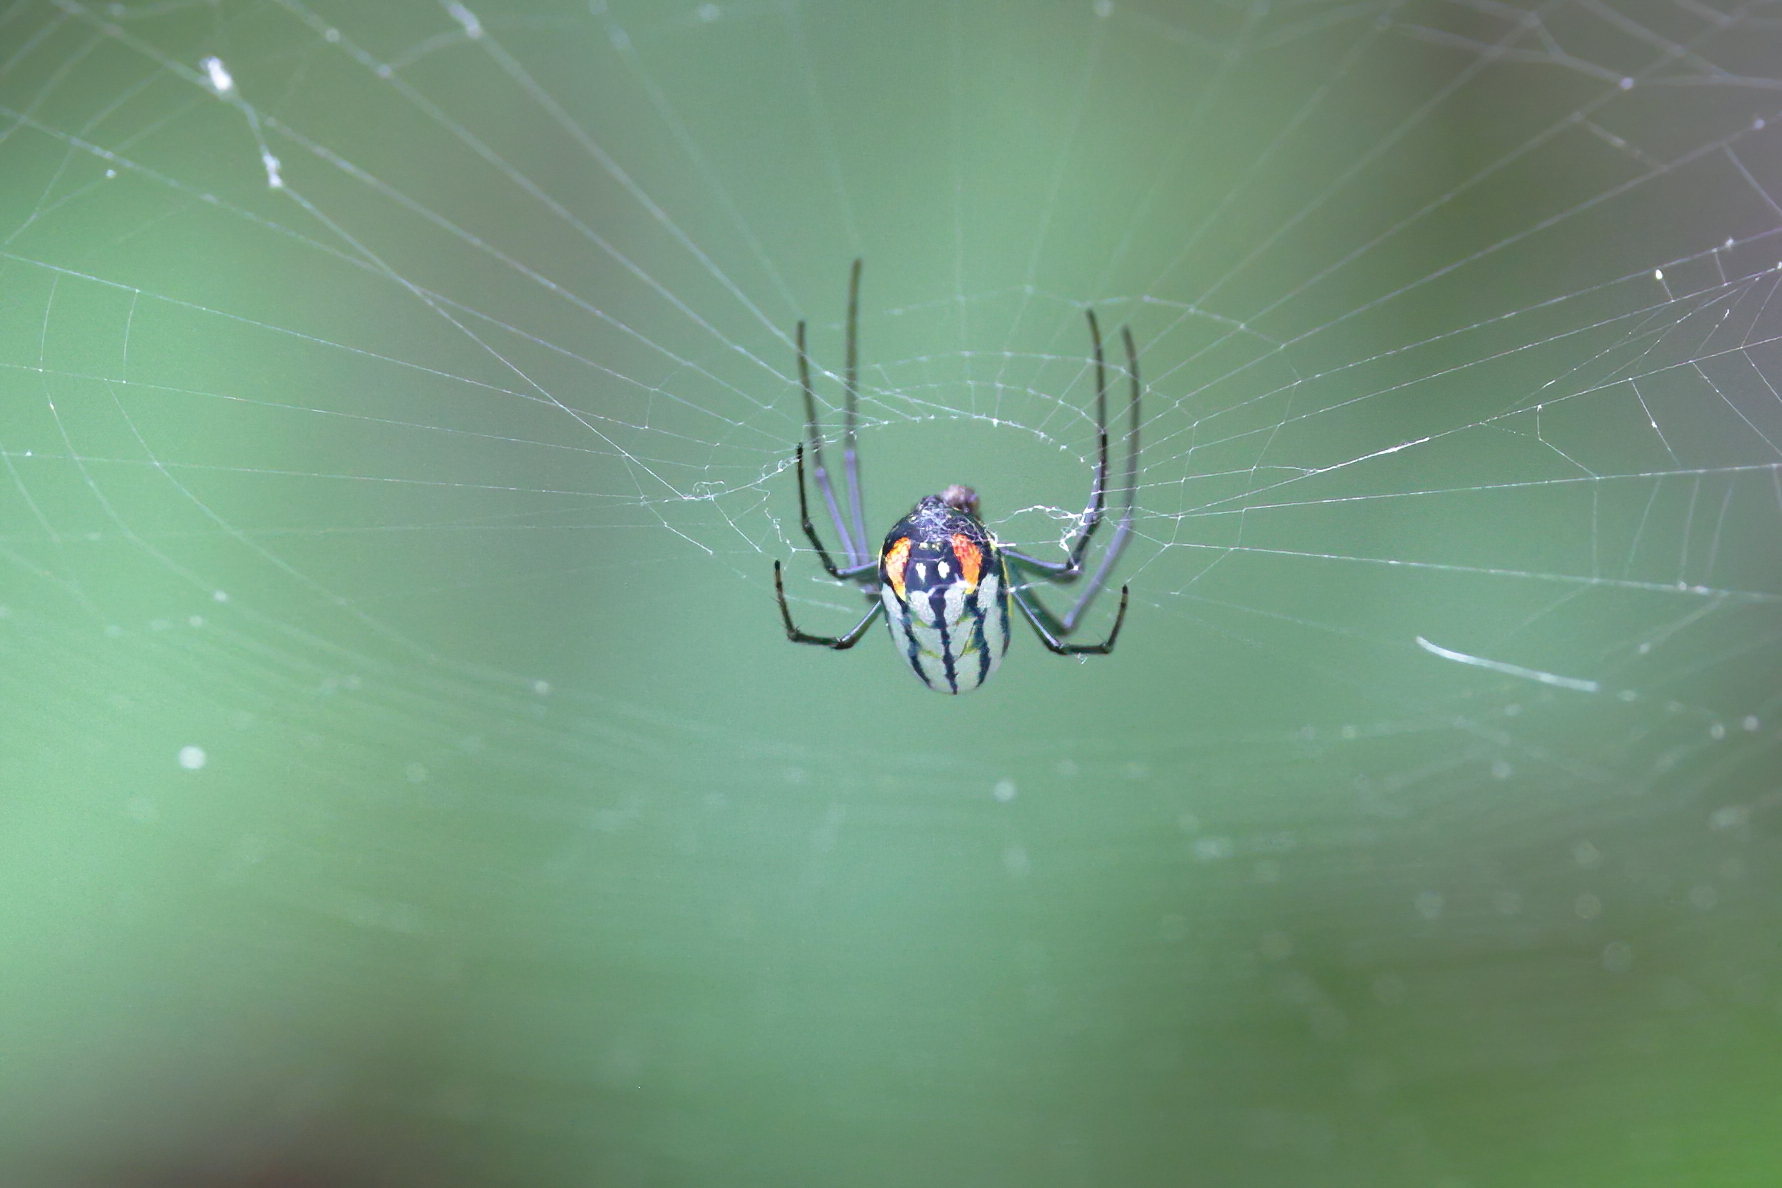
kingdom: Animalia
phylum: Arthropoda
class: Arachnida
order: Araneae
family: Tetragnathidae
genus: Leucauge
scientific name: Leucauge argyrobapta
